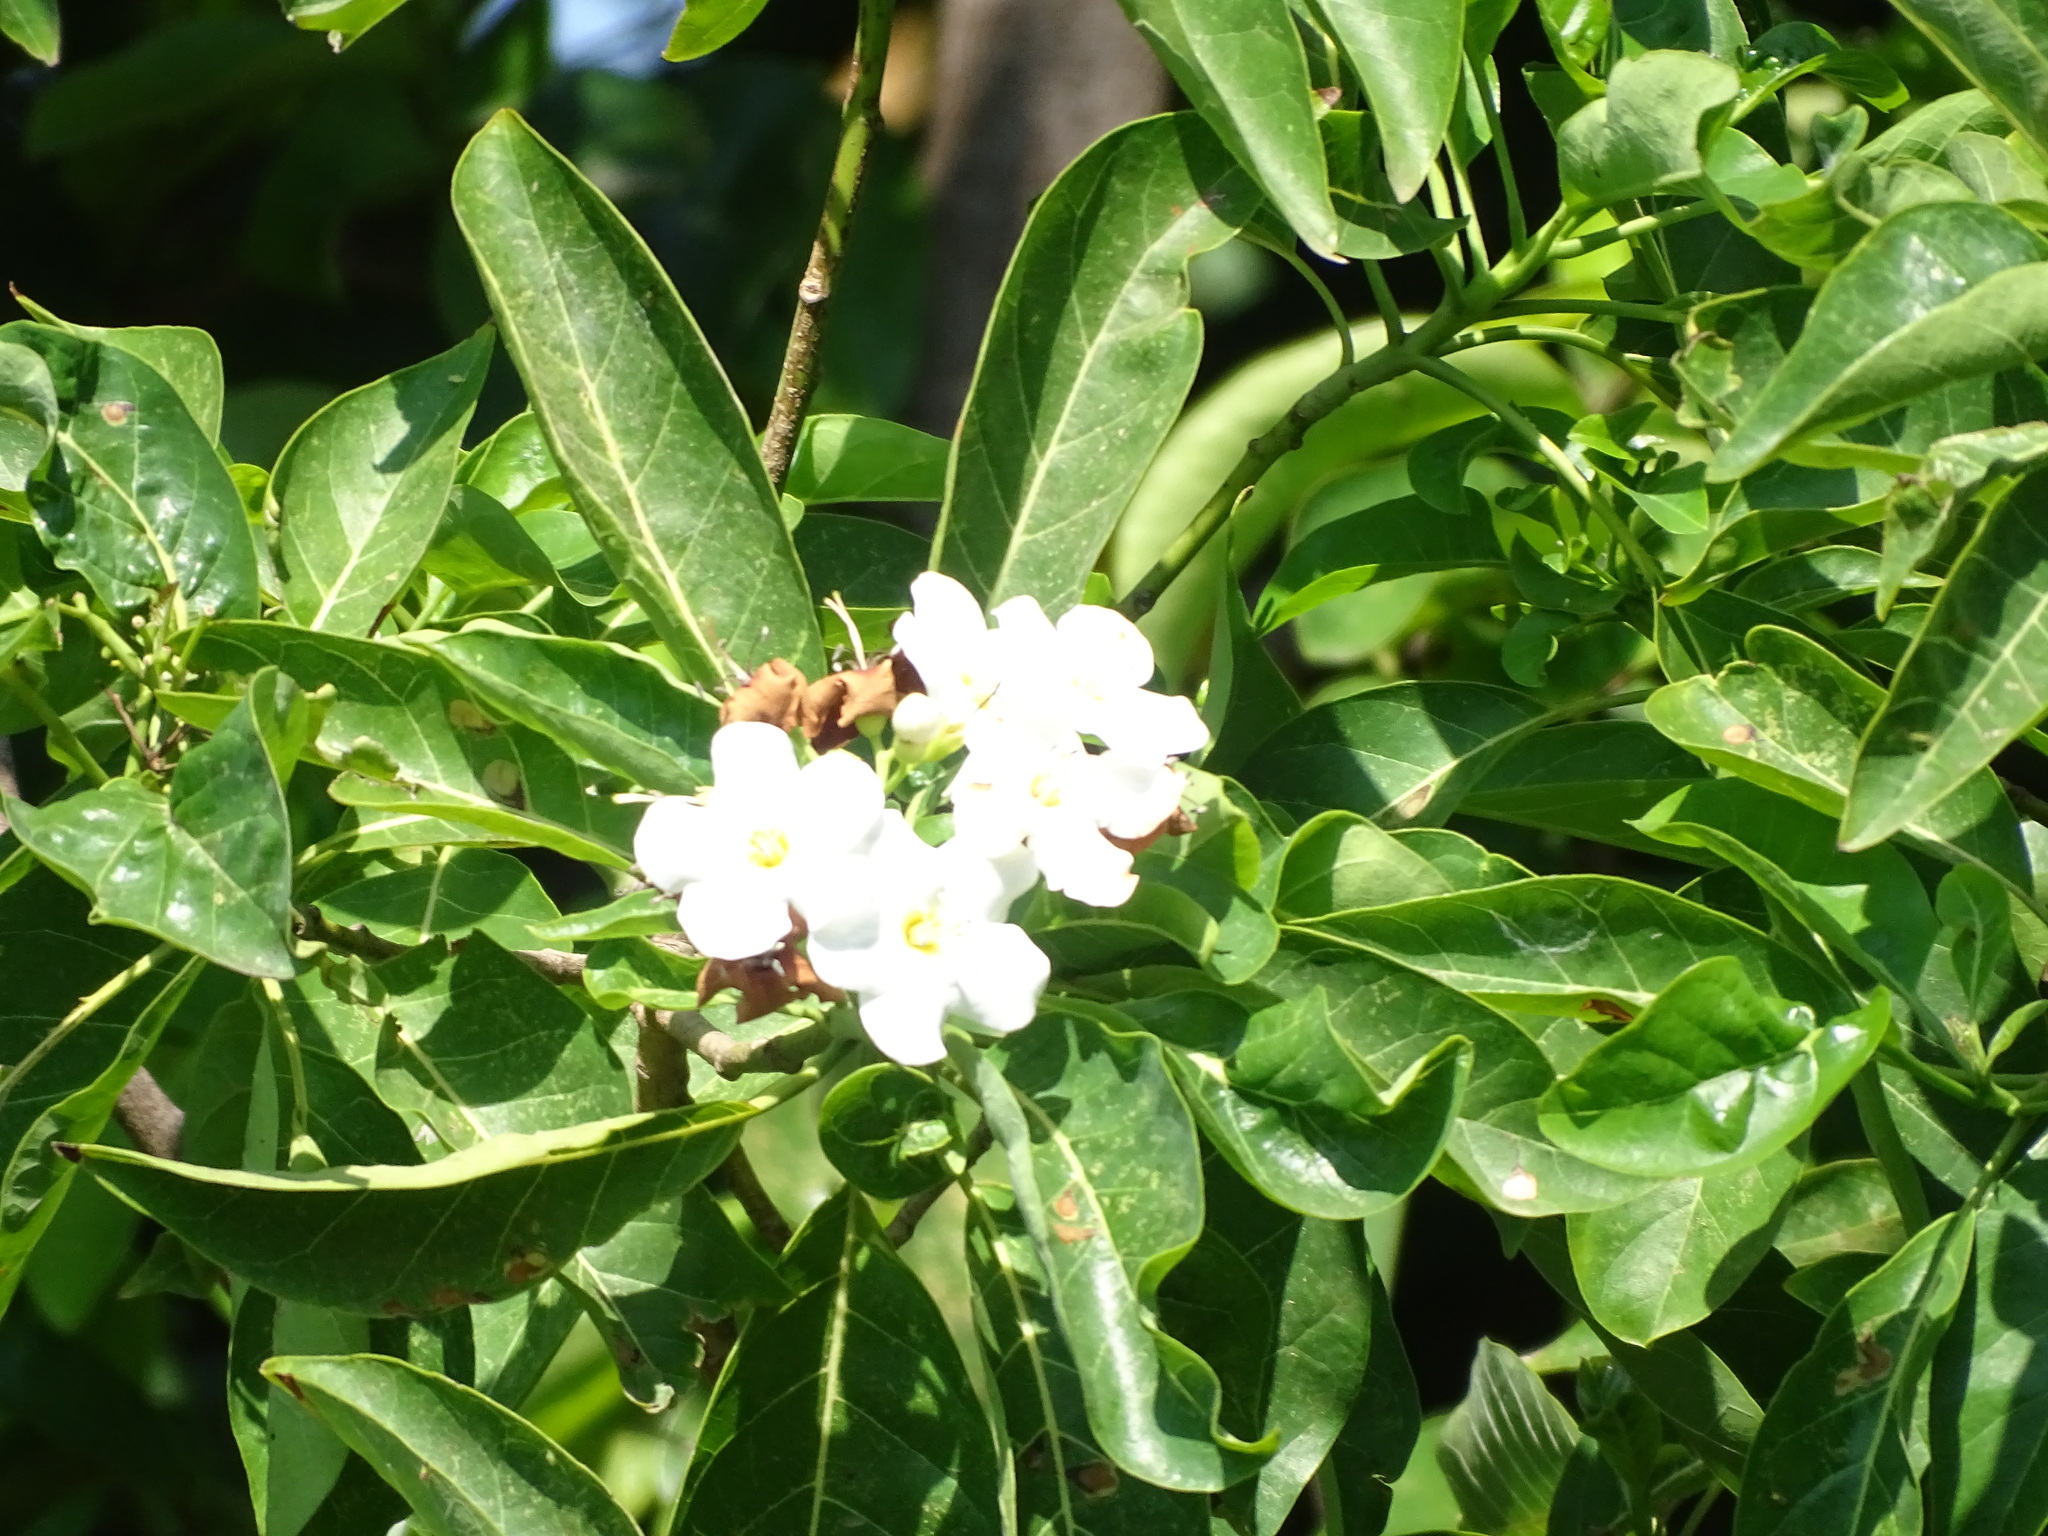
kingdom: Plantae
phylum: Tracheophyta
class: Magnoliopsida
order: Boraginales
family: Ehretiaceae
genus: Bourreria
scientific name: Bourreria huanita
